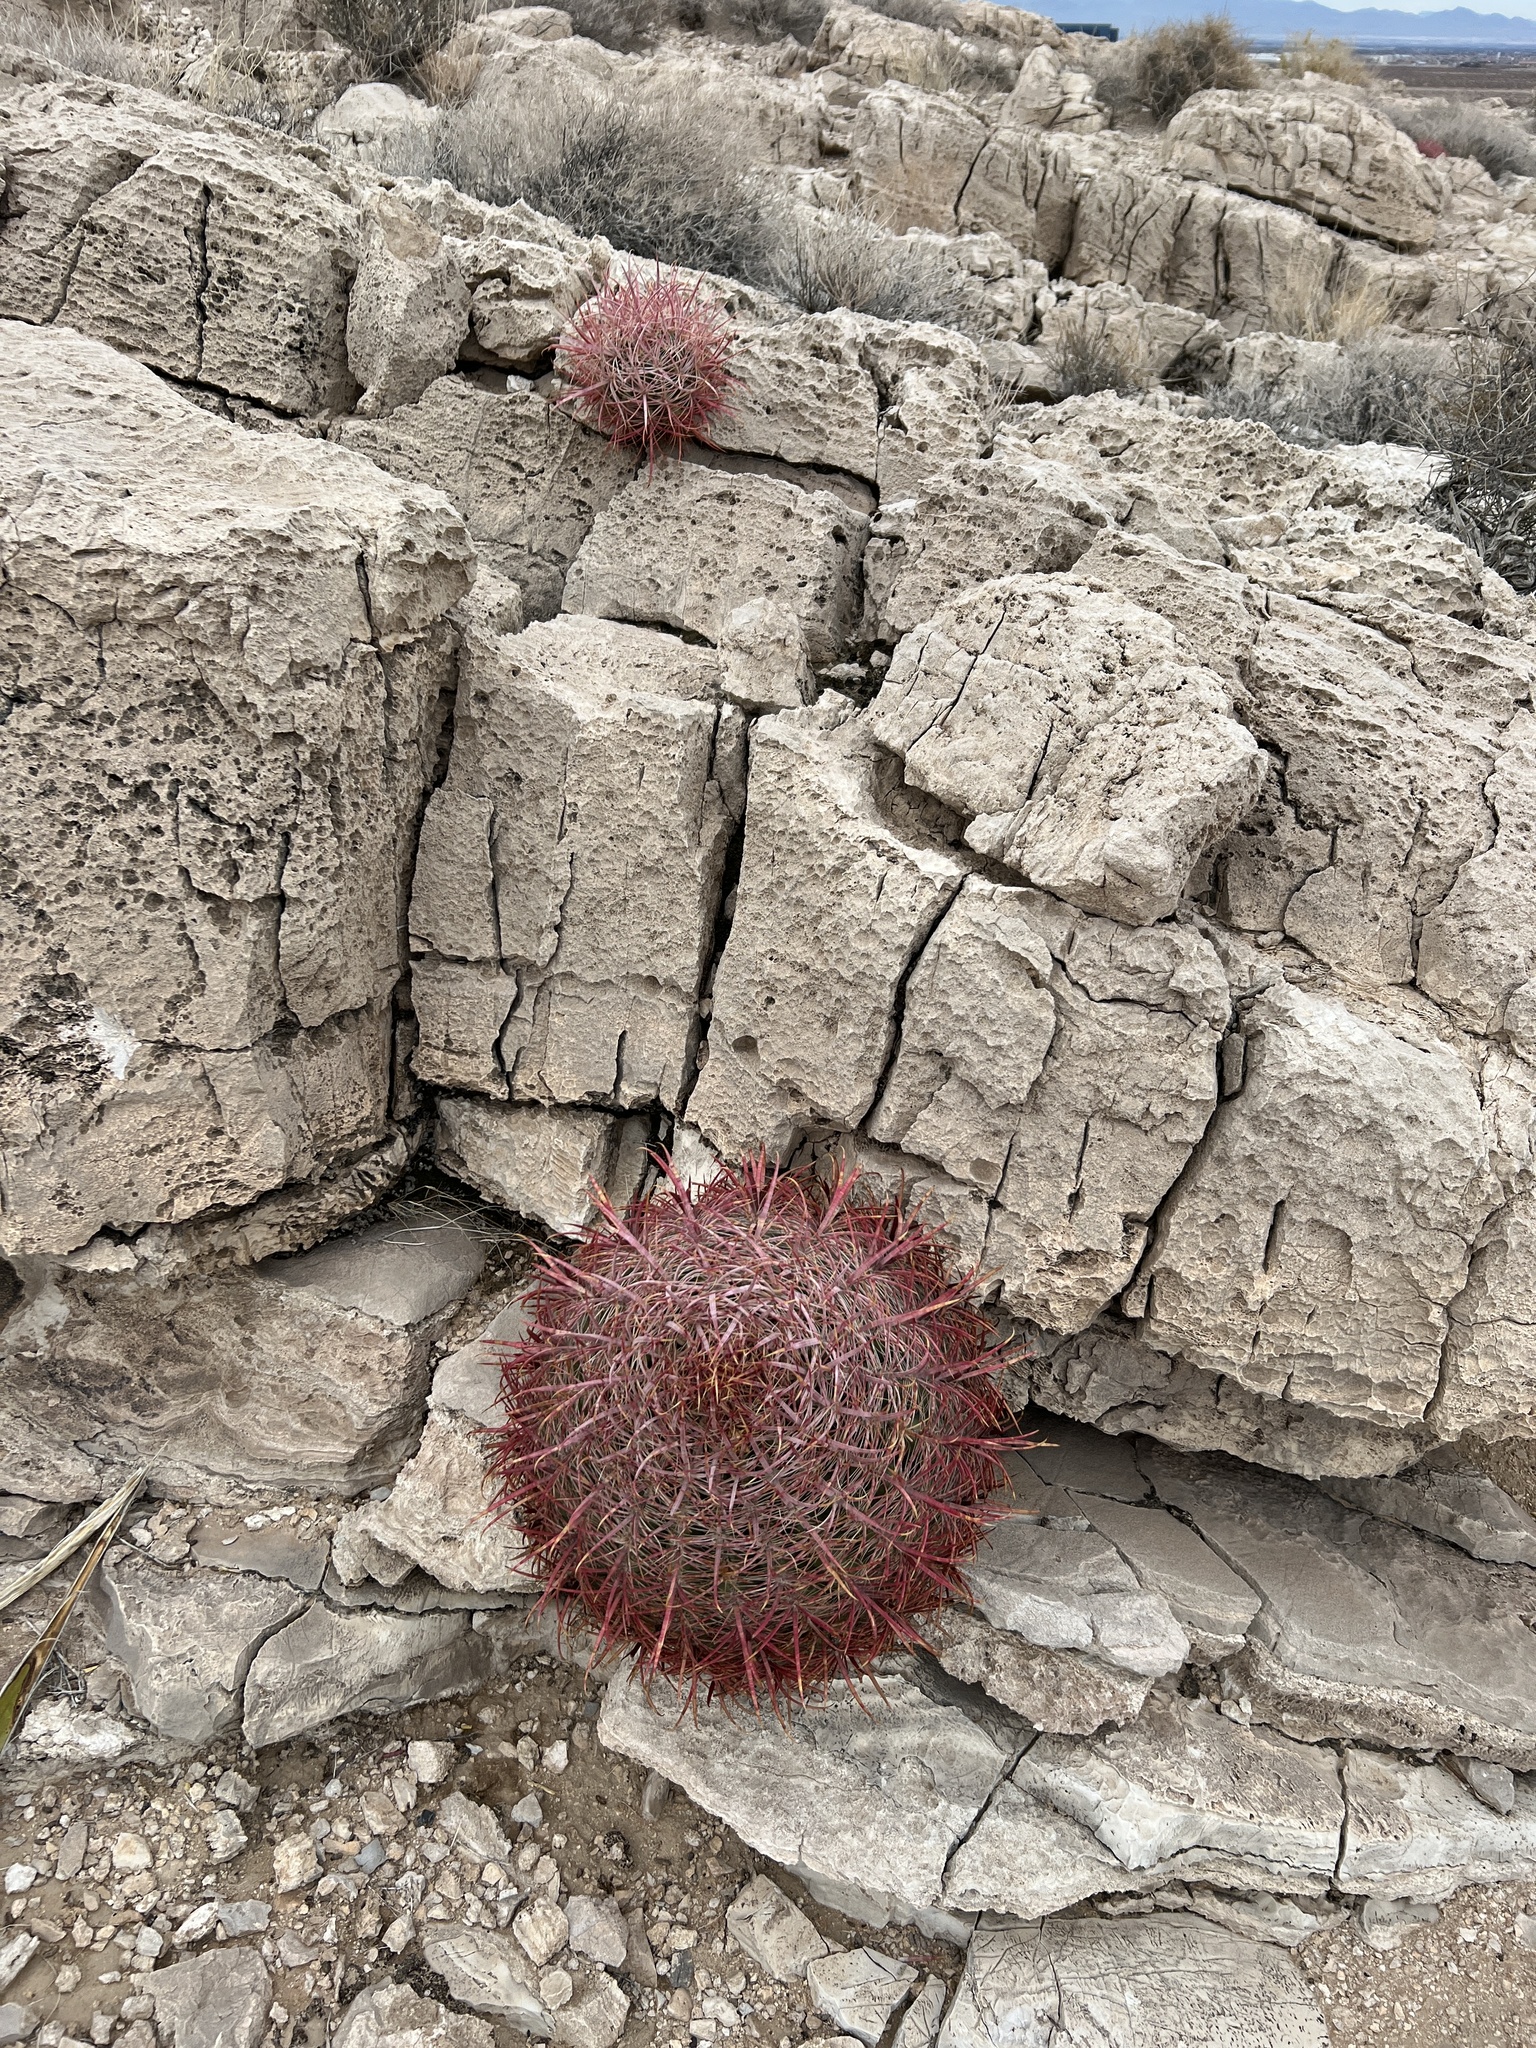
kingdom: Plantae
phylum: Tracheophyta
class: Magnoliopsida
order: Caryophyllales
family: Cactaceae
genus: Ferocactus
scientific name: Ferocactus cylindraceus
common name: California barrel cactus
